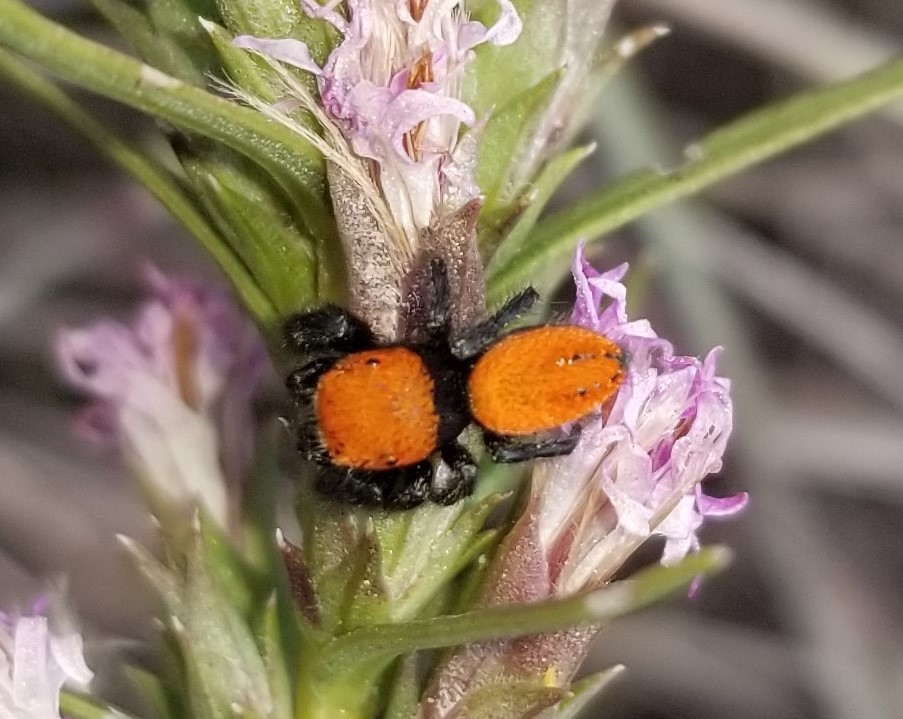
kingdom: Animalia
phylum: Arthropoda
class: Arachnida
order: Araneae
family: Salticidae
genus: Phidippus
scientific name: Phidippus cardinalis
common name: Cardinal jumper
